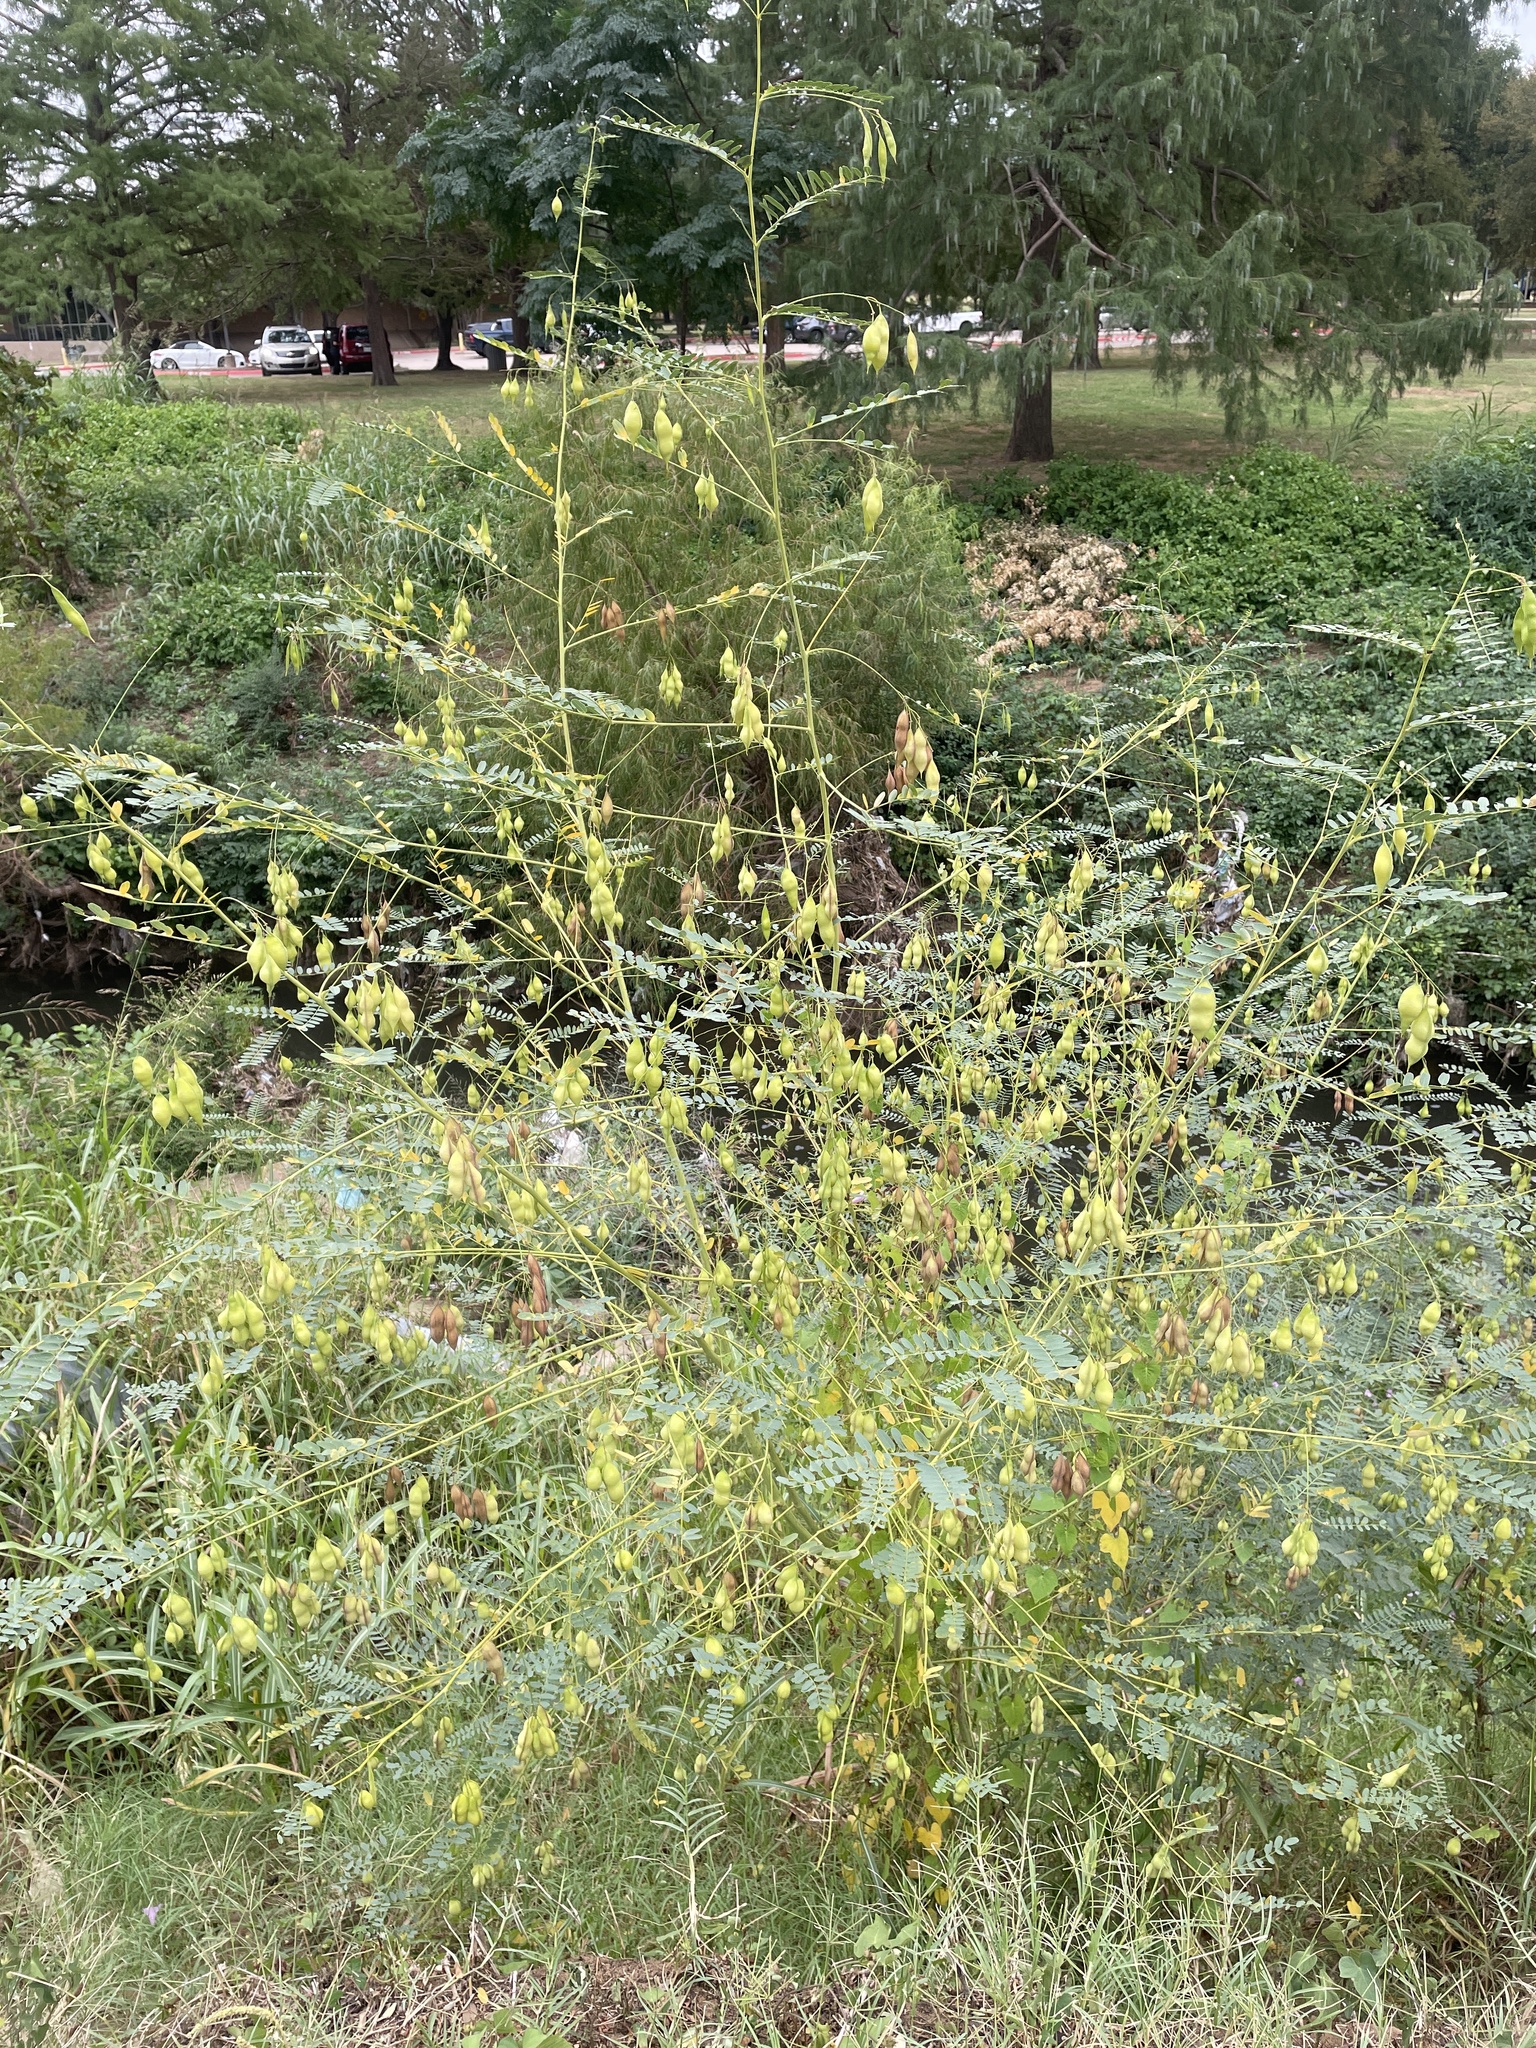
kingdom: Plantae
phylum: Tracheophyta
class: Magnoliopsida
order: Fabales
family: Fabaceae
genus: Sesbania
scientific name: Sesbania vesicaria
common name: Bagpod
